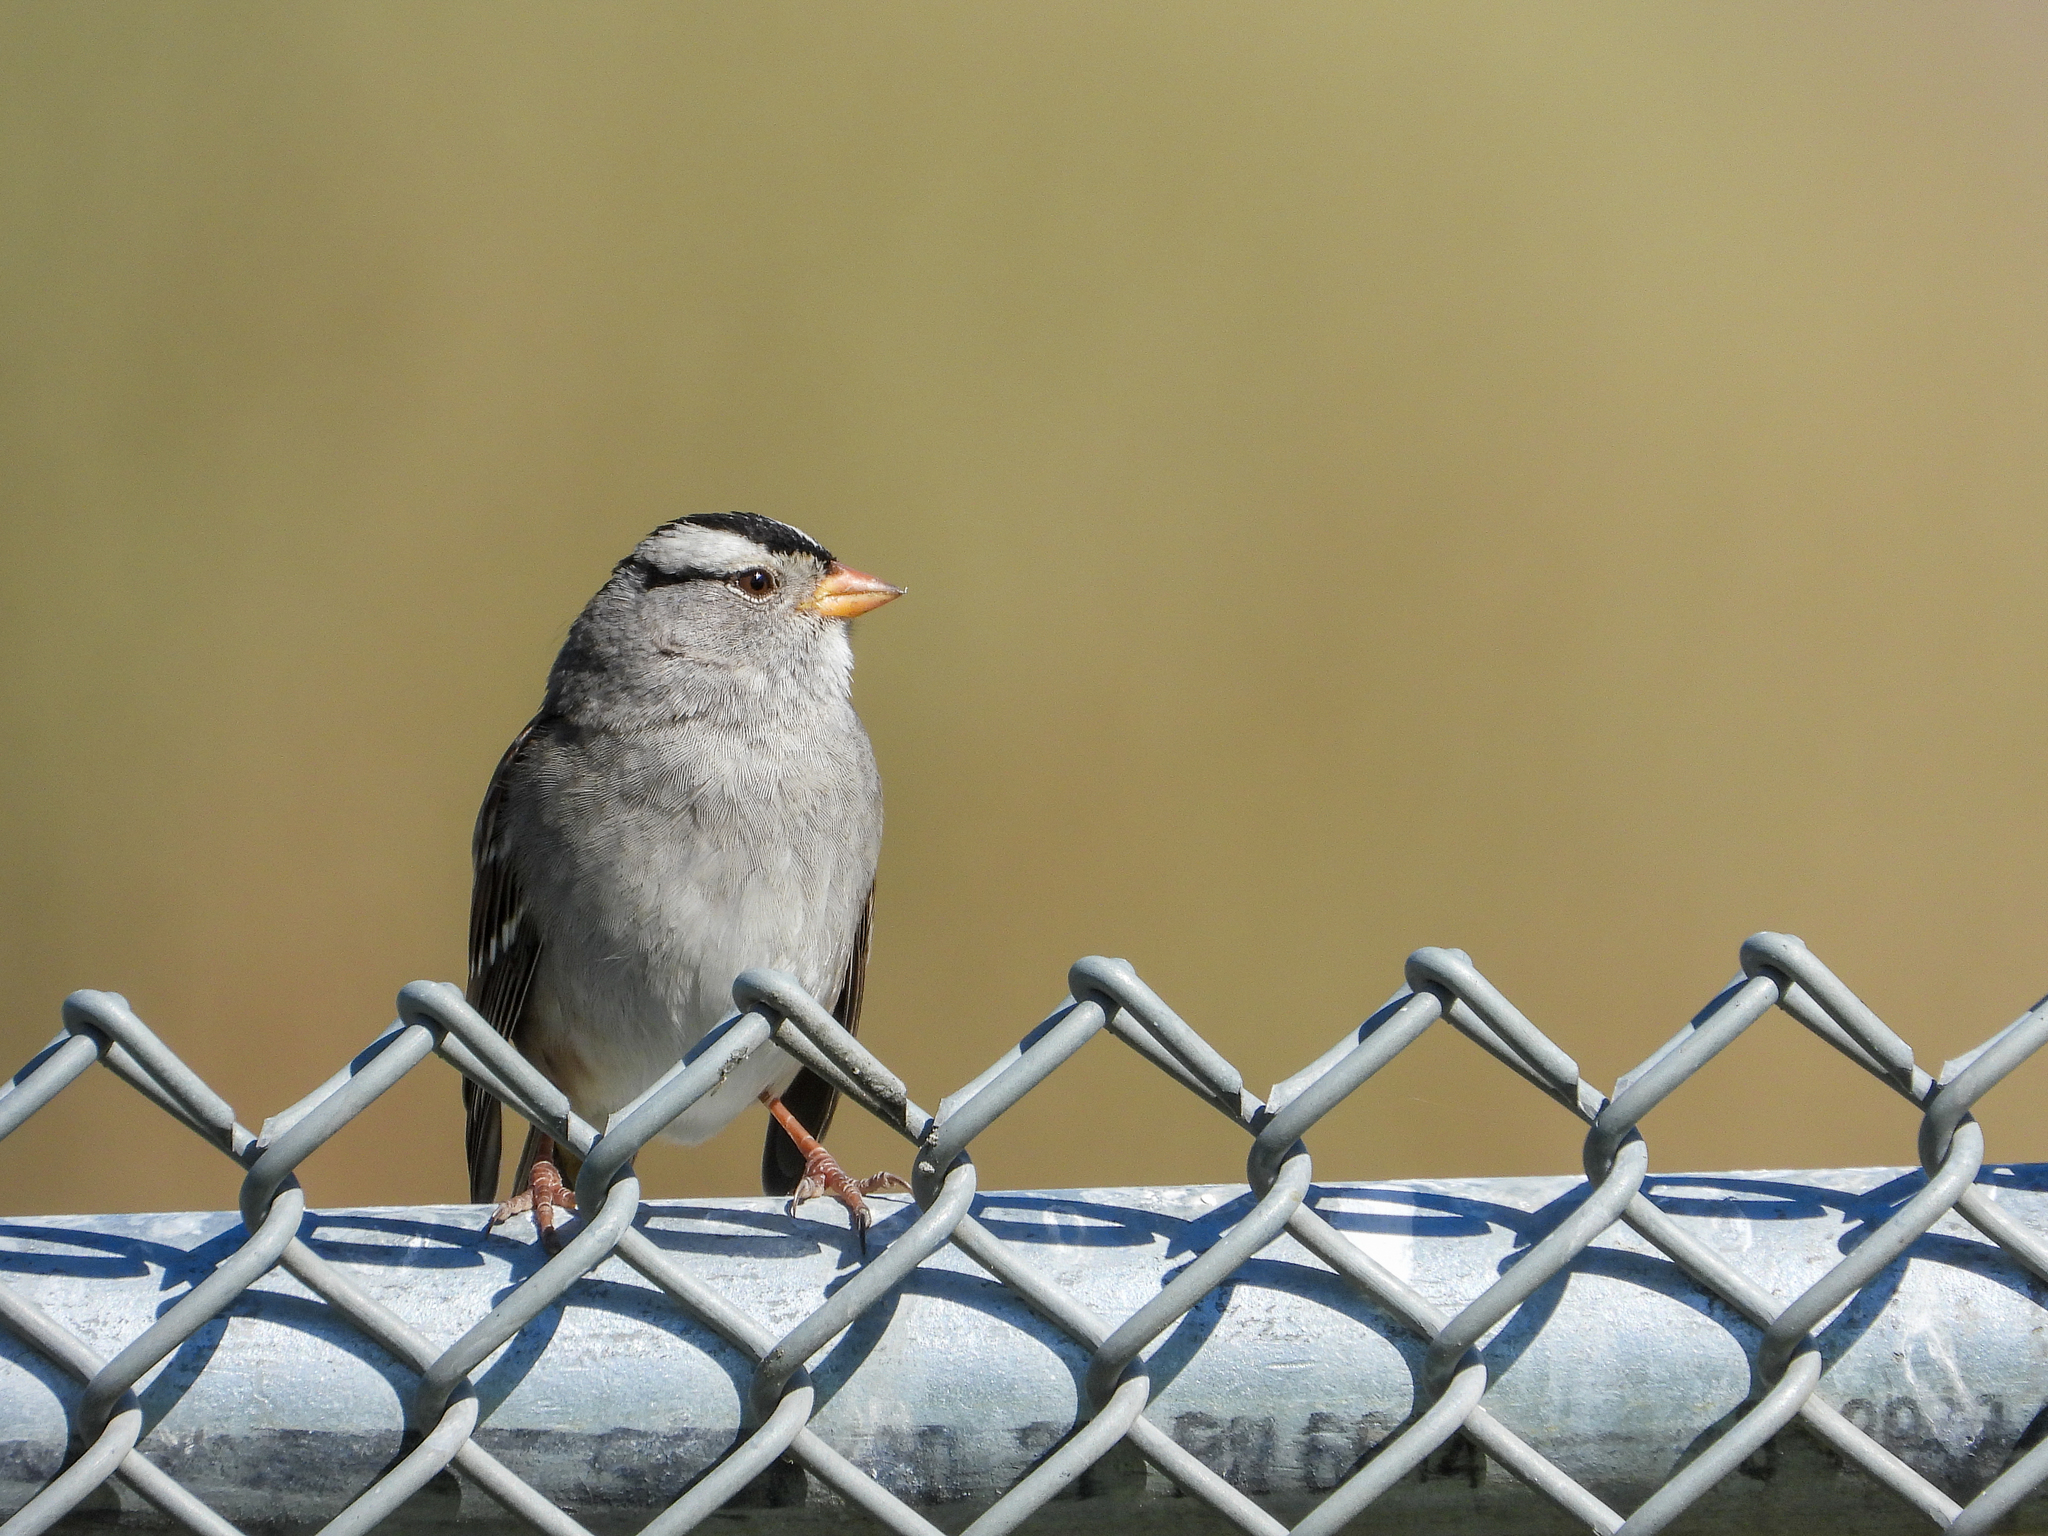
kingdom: Animalia
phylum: Chordata
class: Aves
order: Passeriformes
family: Passerellidae
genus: Zonotrichia
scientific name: Zonotrichia leucophrys
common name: White-crowned sparrow
